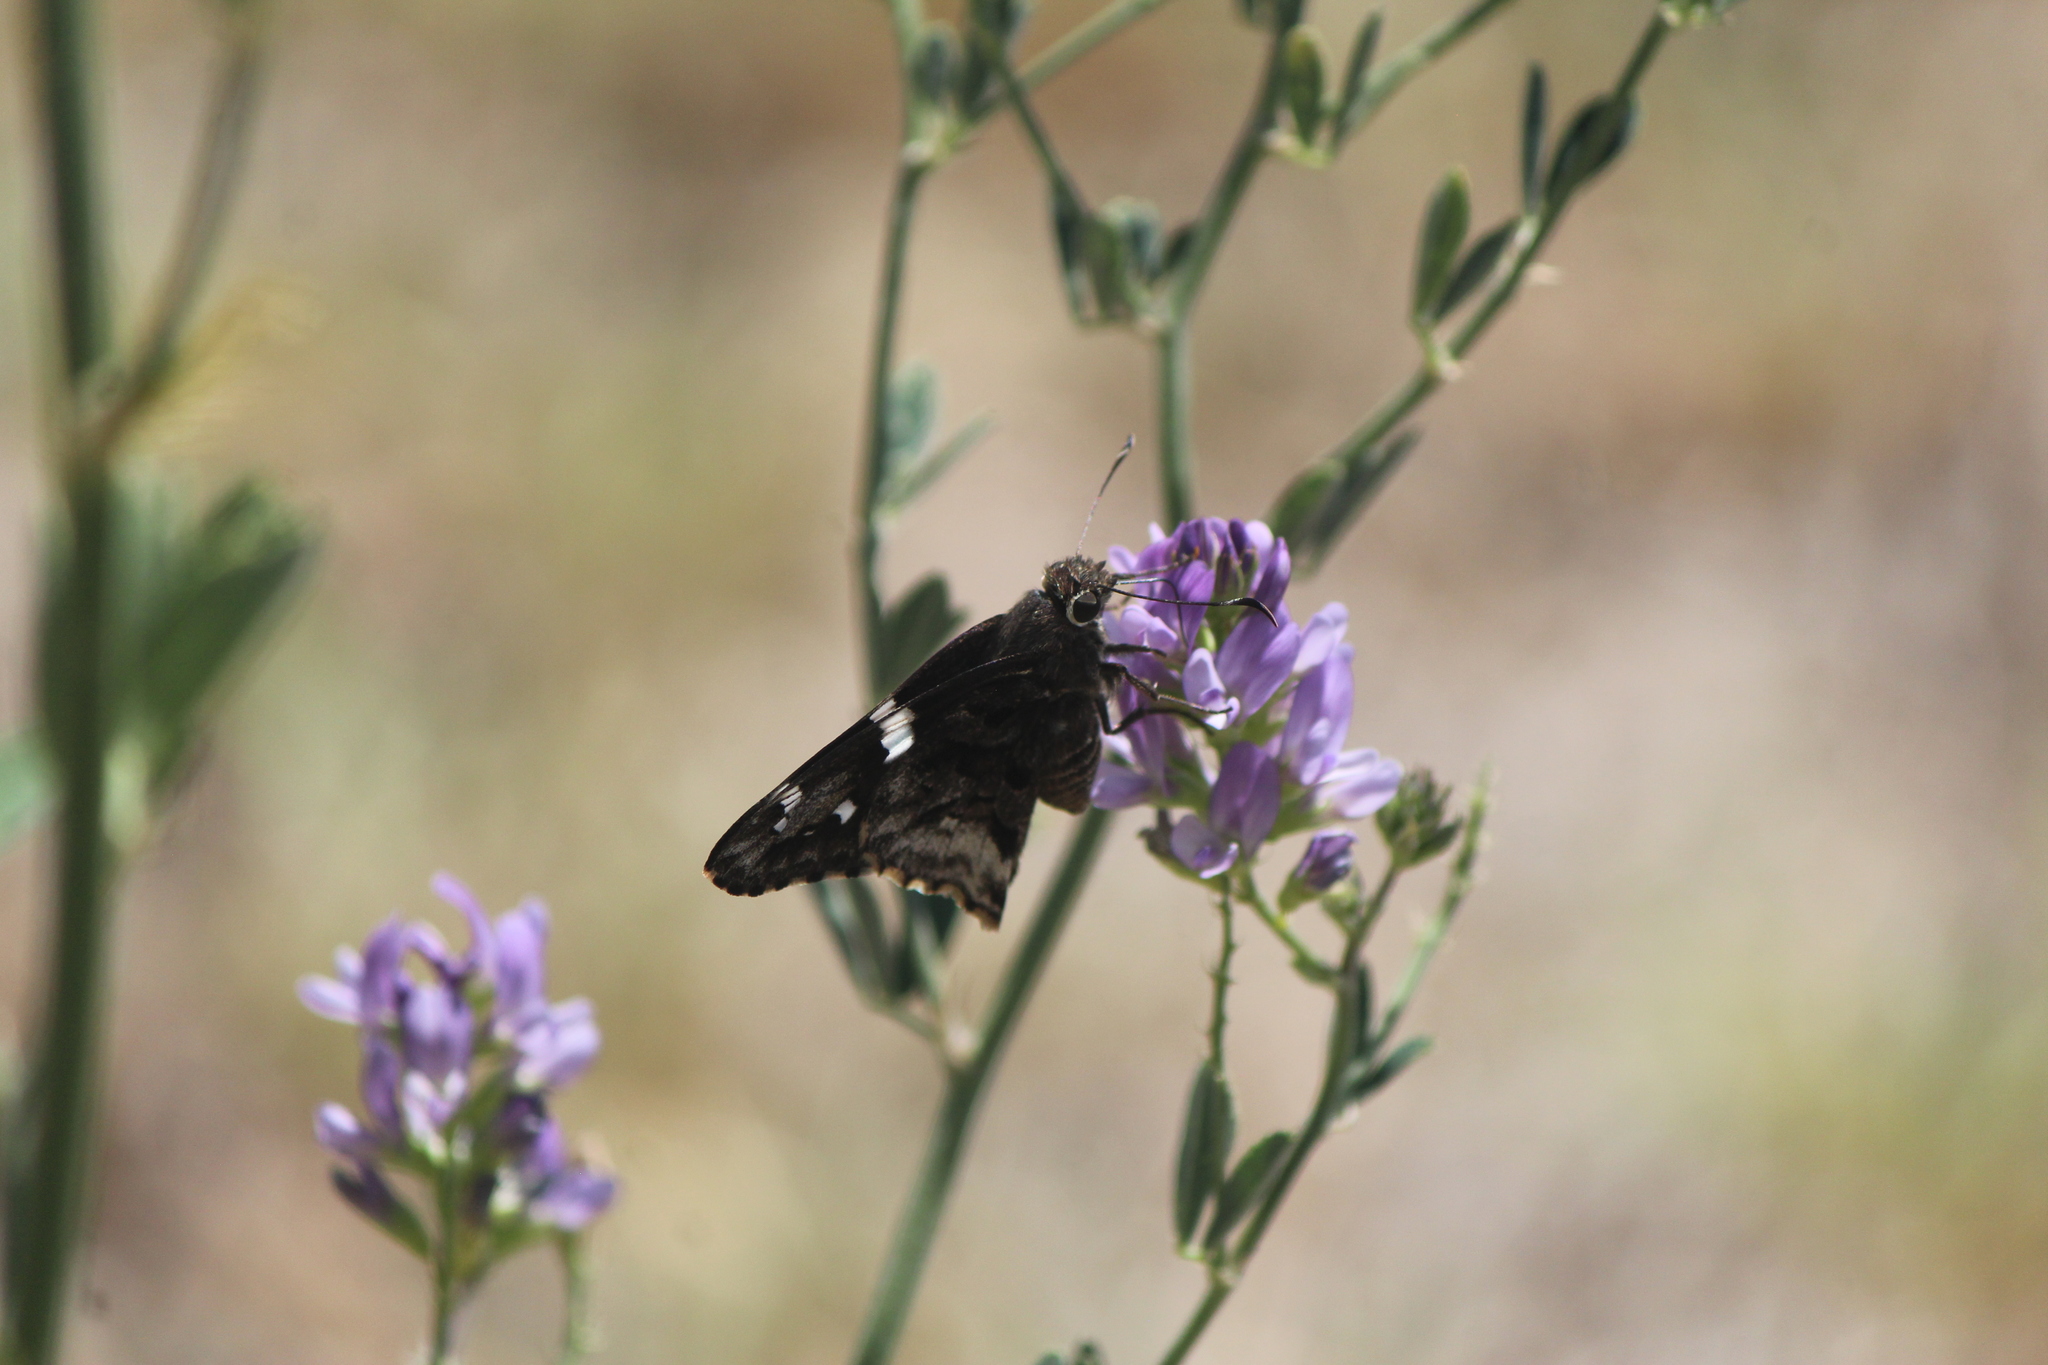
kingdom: Animalia
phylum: Arthropoda
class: Insecta
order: Lepidoptera
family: Hesperiidae
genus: Codatractus
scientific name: Codatractus arizonensis
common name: Arizona skipper
